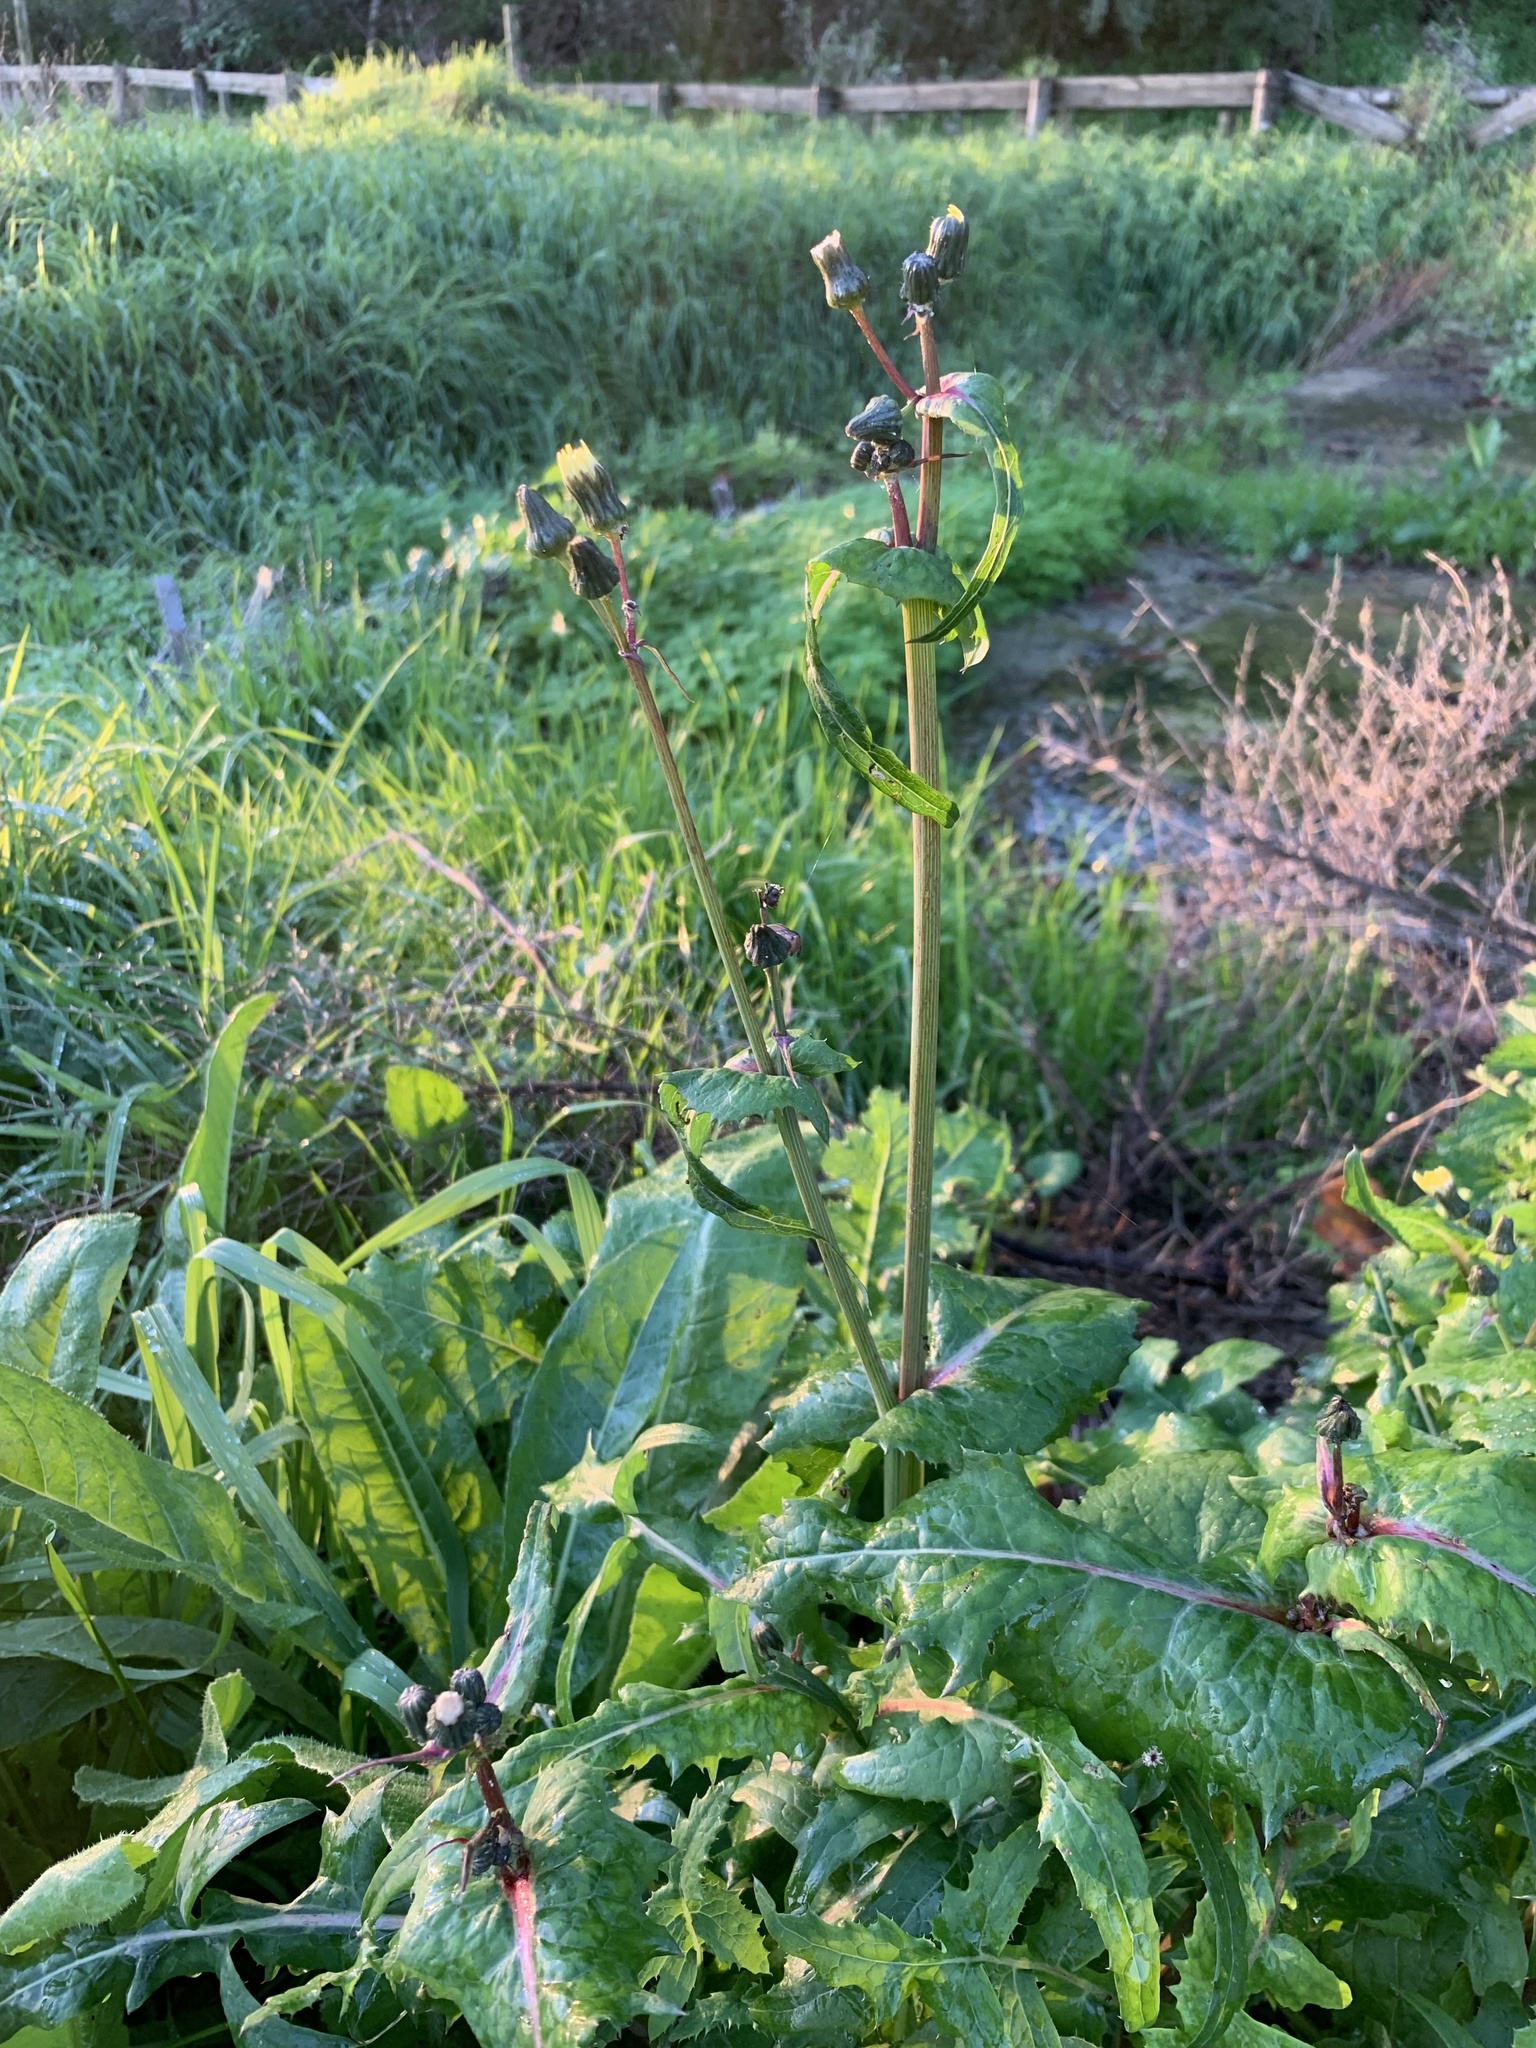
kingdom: Plantae
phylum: Tracheophyta
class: Magnoliopsida
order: Asterales
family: Asteraceae
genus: Sonchus
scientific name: Sonchus oleraceus
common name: Common sowthistle
